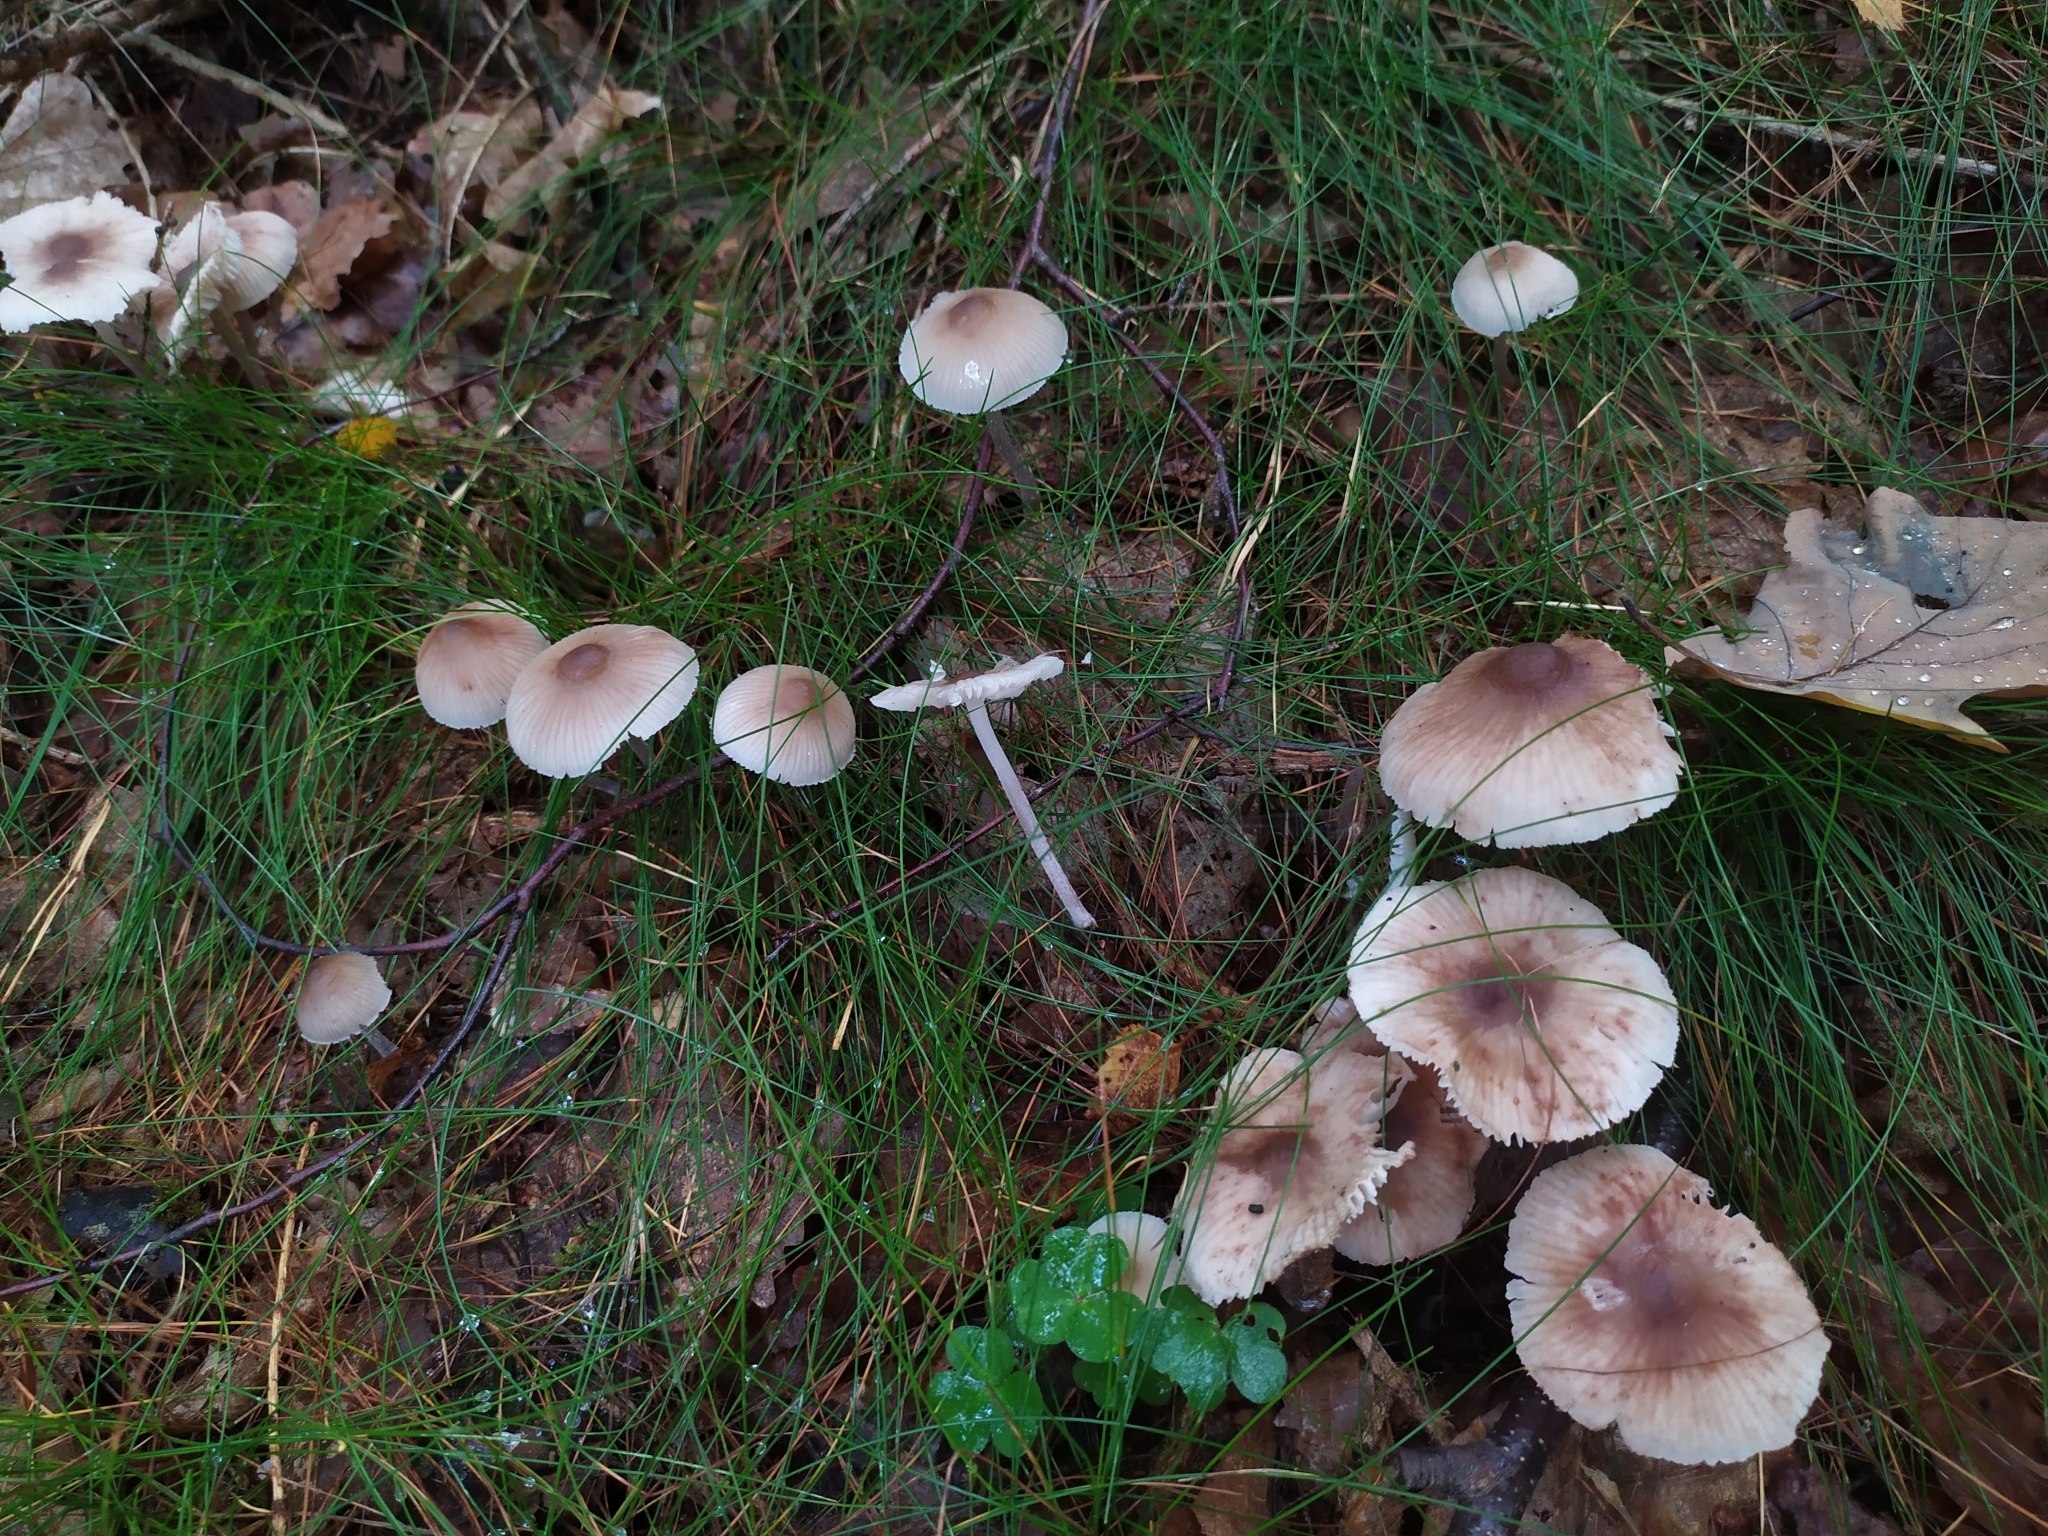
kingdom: Fungi
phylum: Basidiomycota
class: Agaricomycetes
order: Agaricales
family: Mycenaceae
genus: Mycena
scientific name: Mycena zephirus
